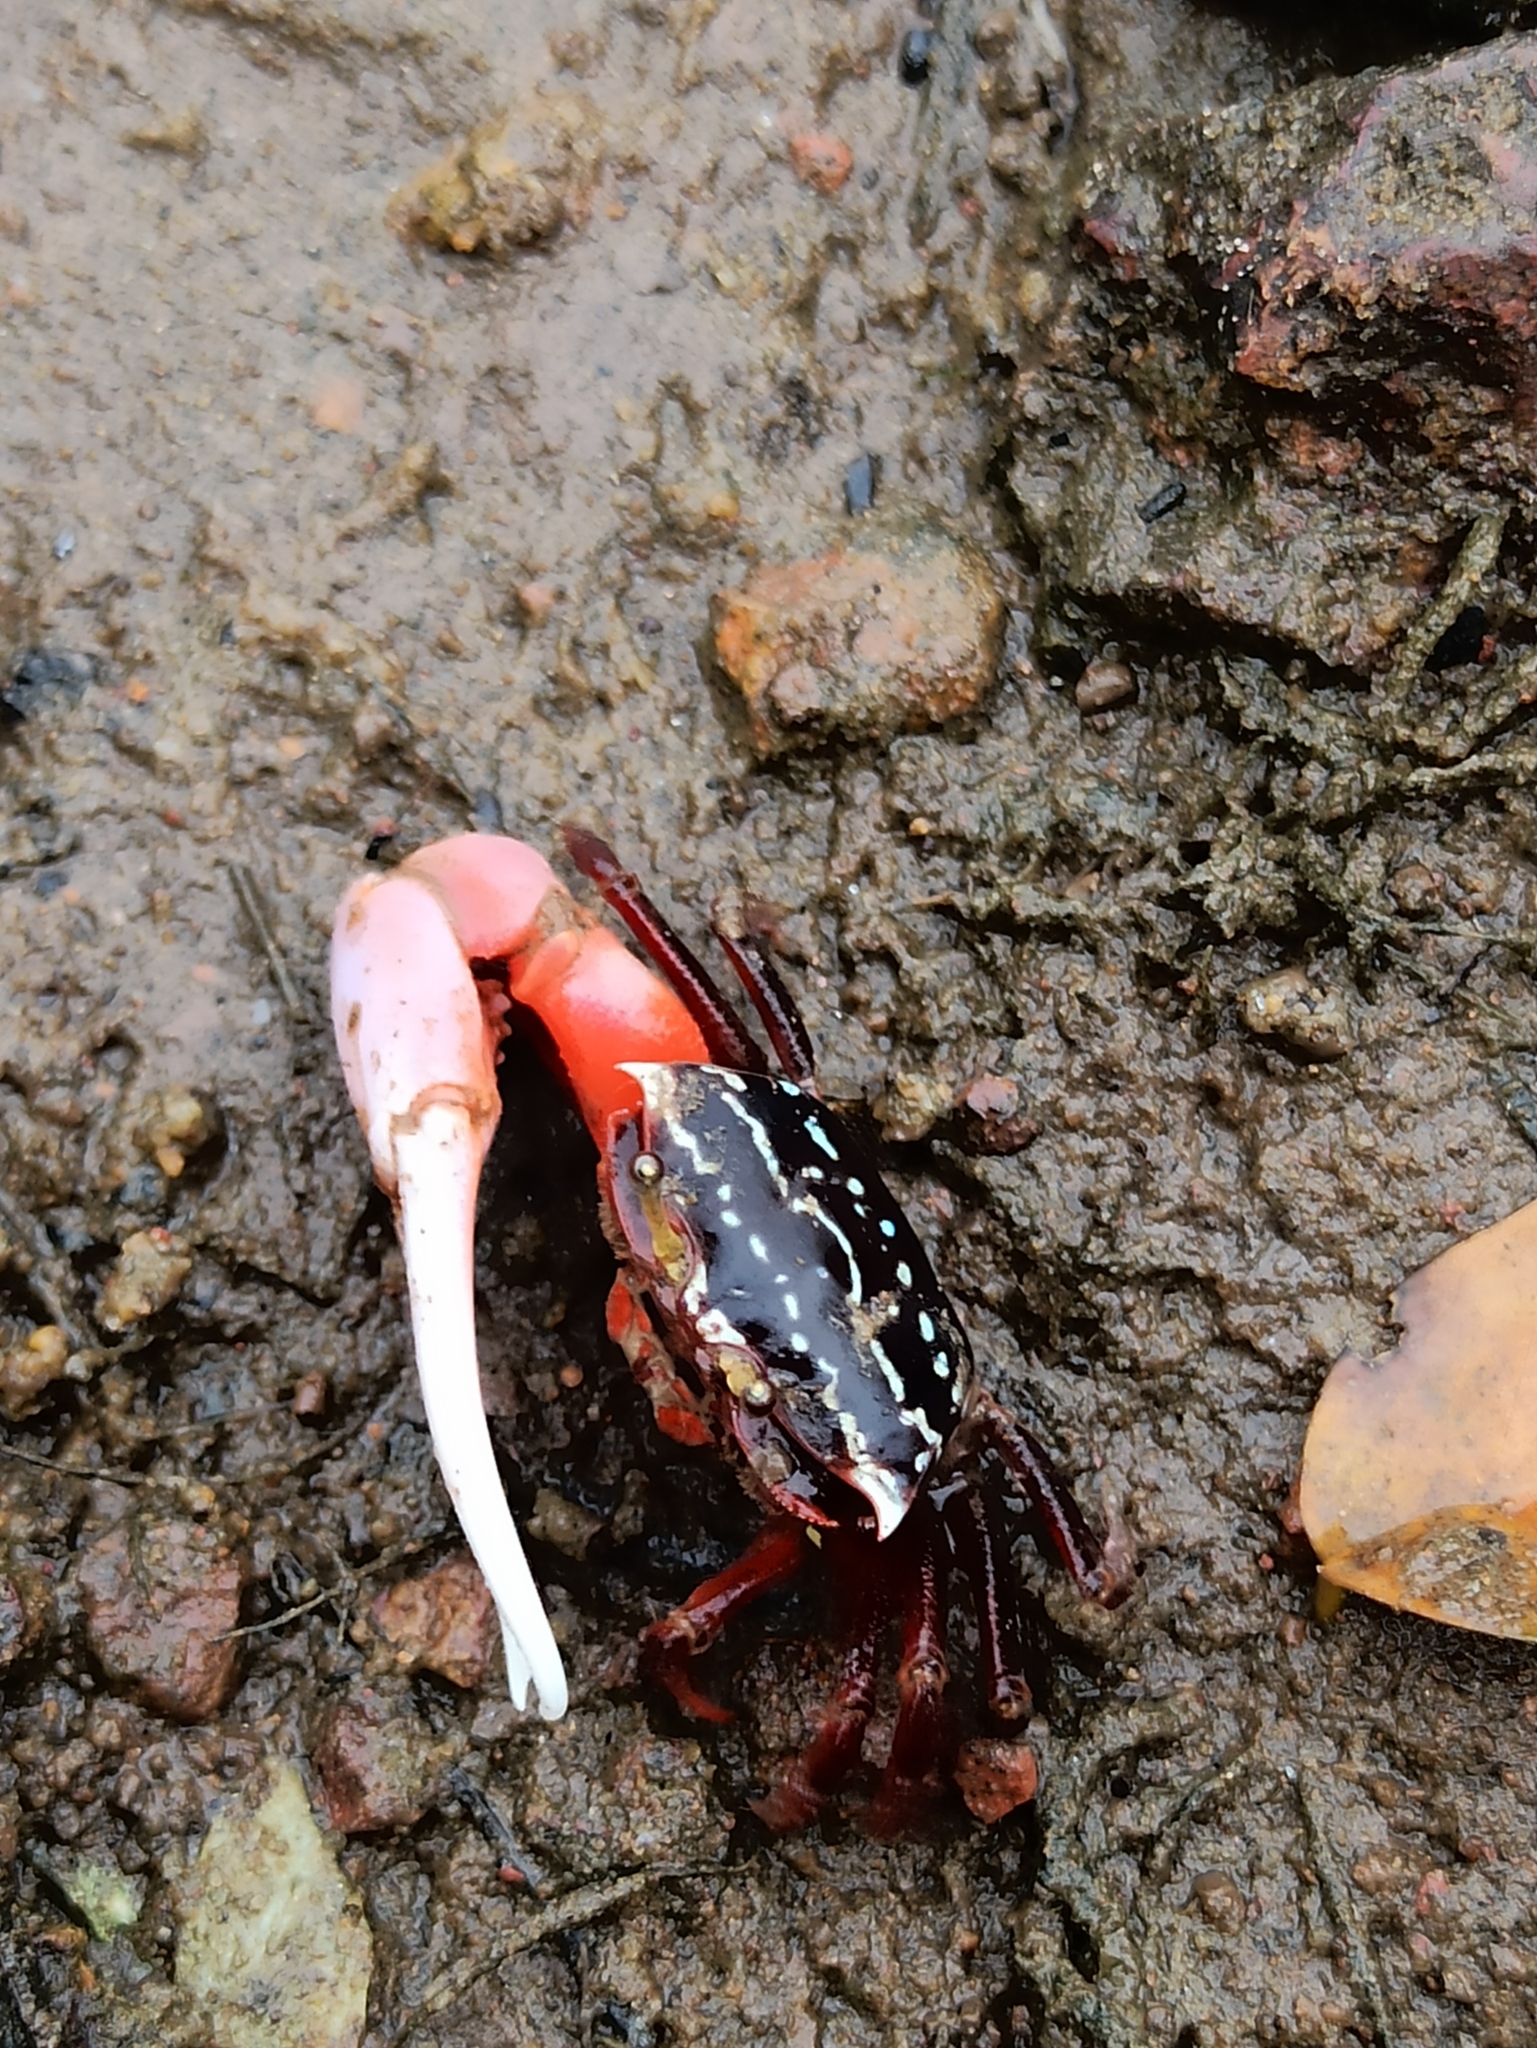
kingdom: Animalia
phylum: Arthropoda
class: Malacostraca
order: Decapoda
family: Ocypodidae
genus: Austruca
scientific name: Austruca annulipes
